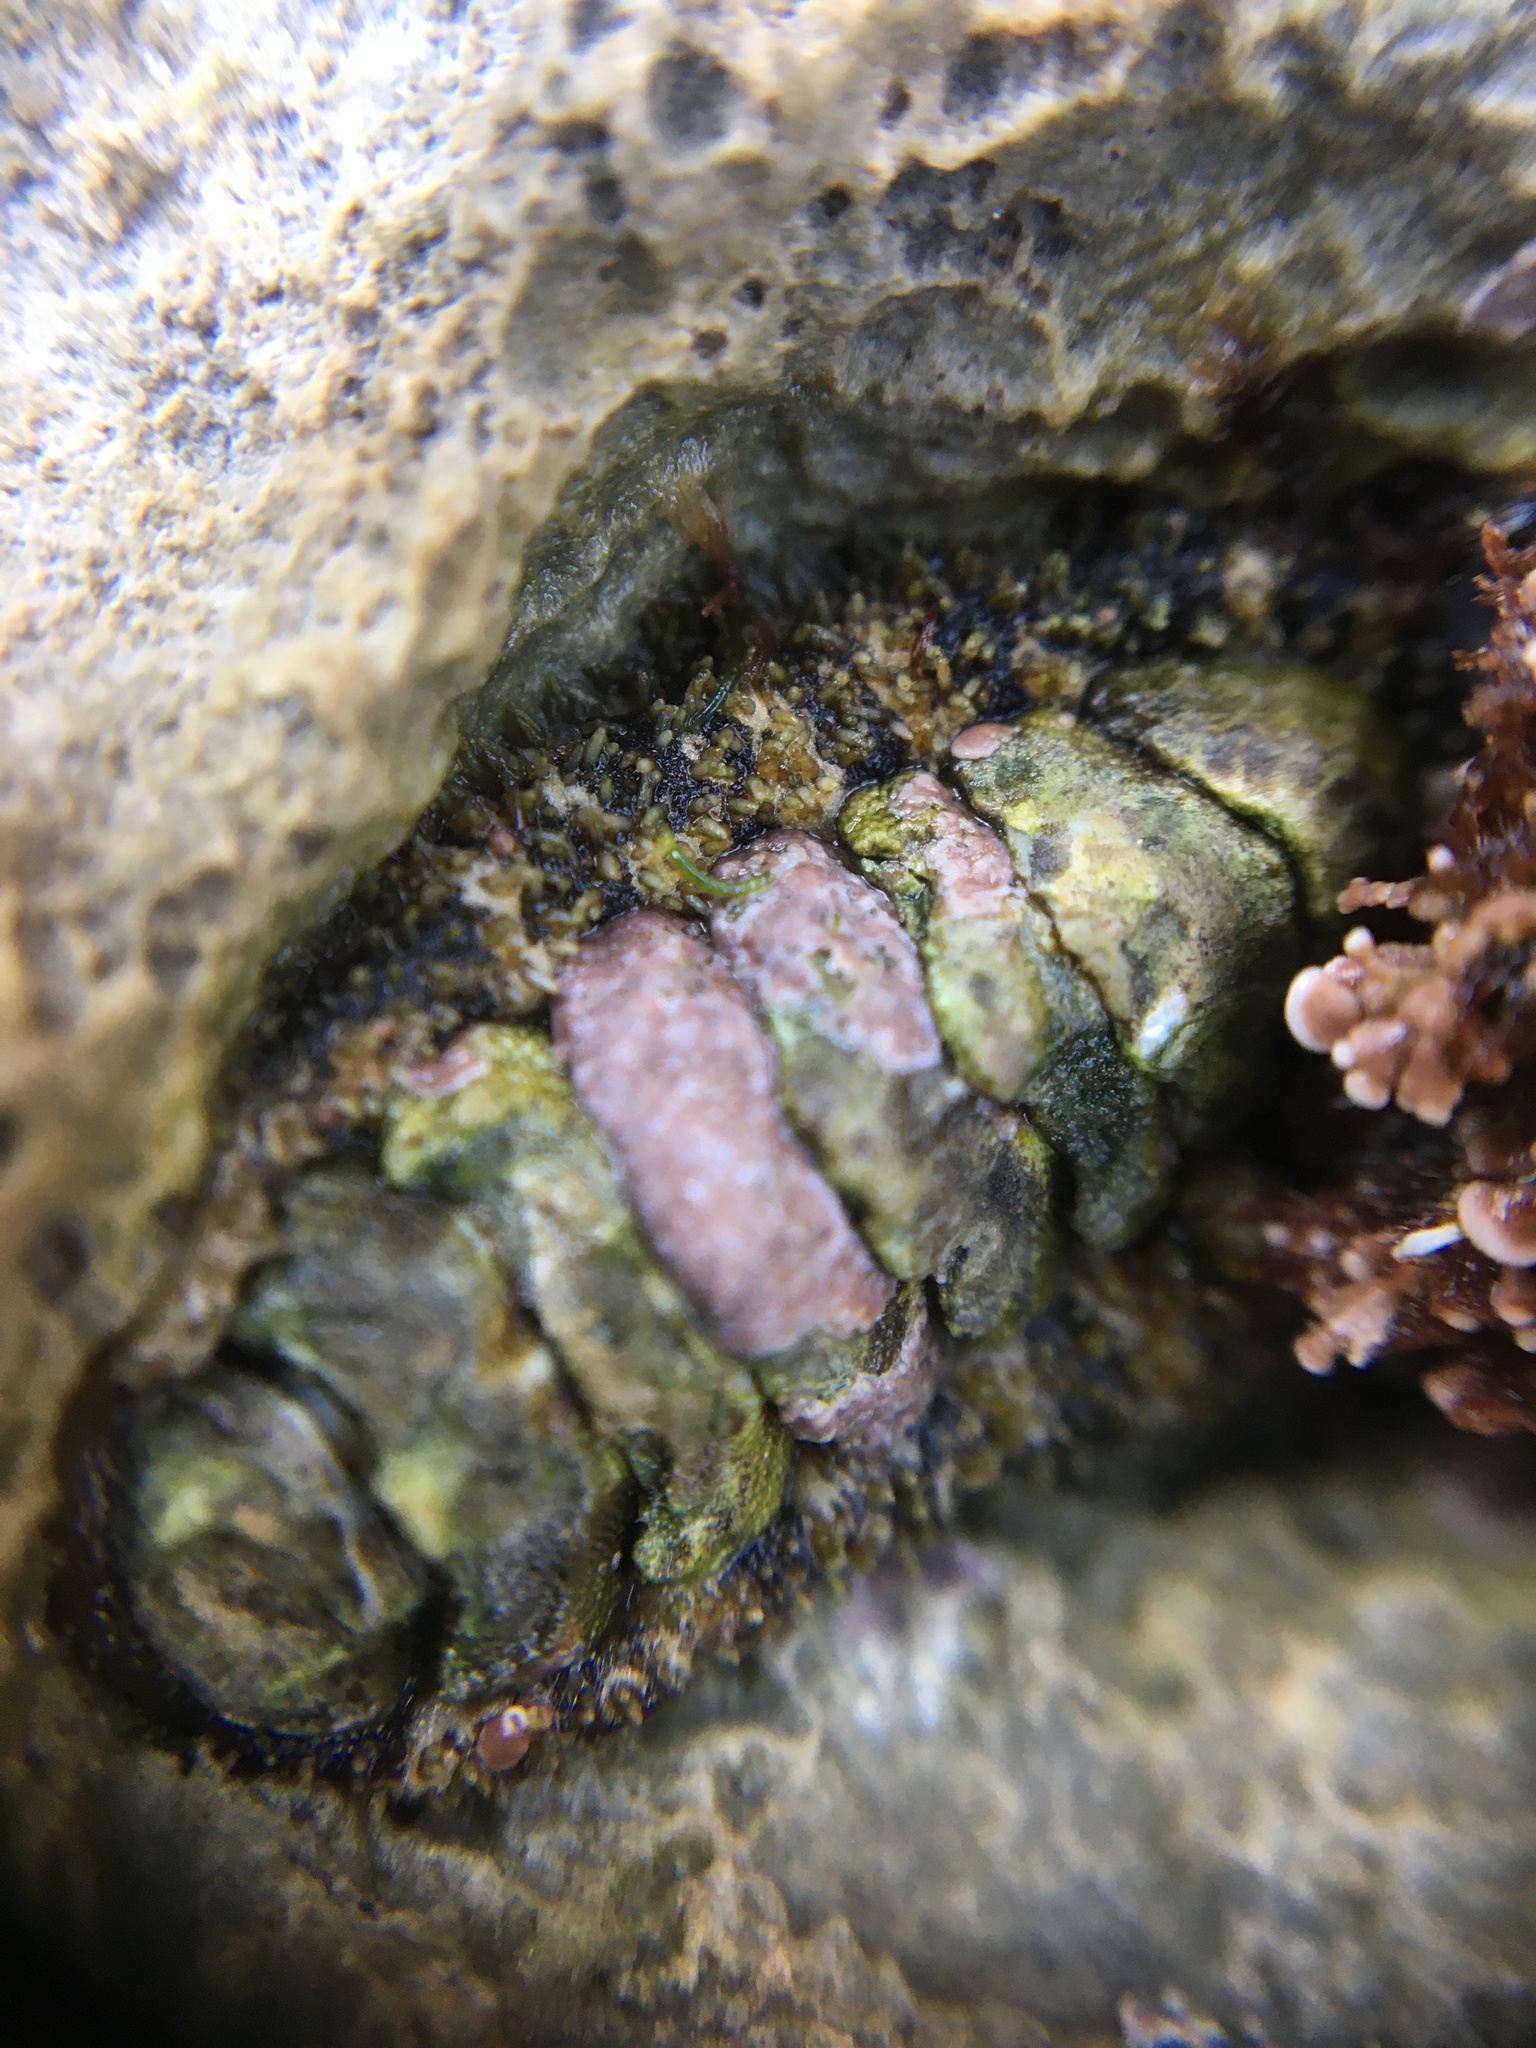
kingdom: Animalia
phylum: Mollusca
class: Polyplacophora
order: Chitonida
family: Mopaliidae
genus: Mopalia
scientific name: Mopalia muscosa
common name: Mossy chiton
